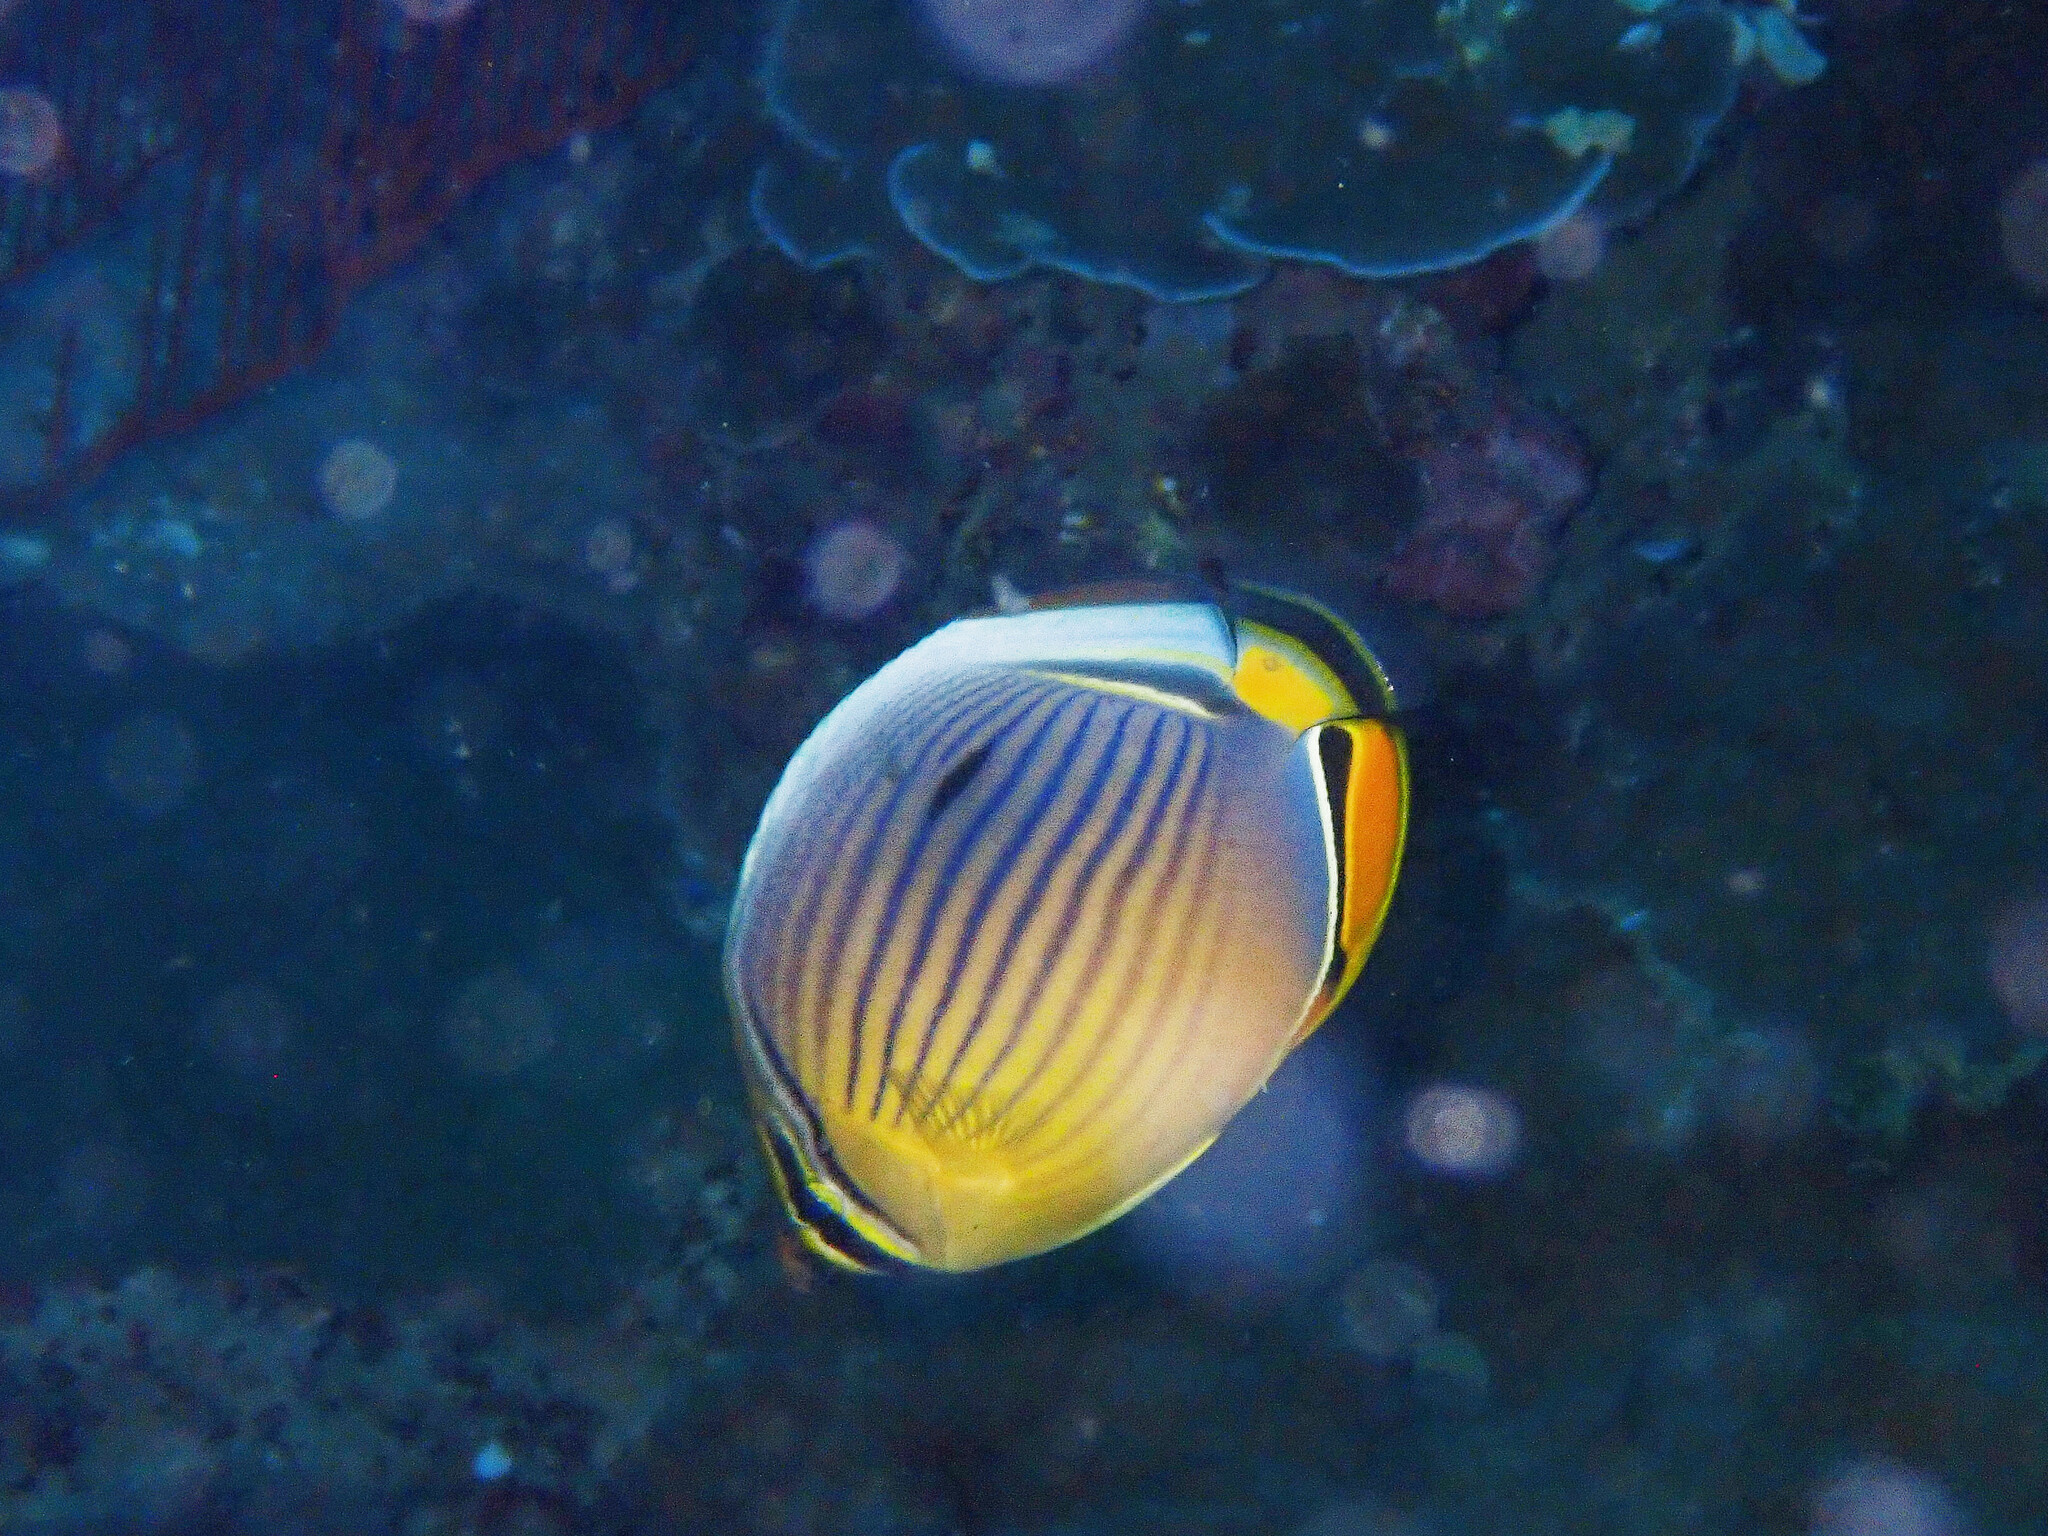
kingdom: Animalia
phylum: Chordata
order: Perciformes
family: Chaetodontidae
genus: Chaetodon
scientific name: Chaetodon trifasciatus
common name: Redfin butterflyfish
